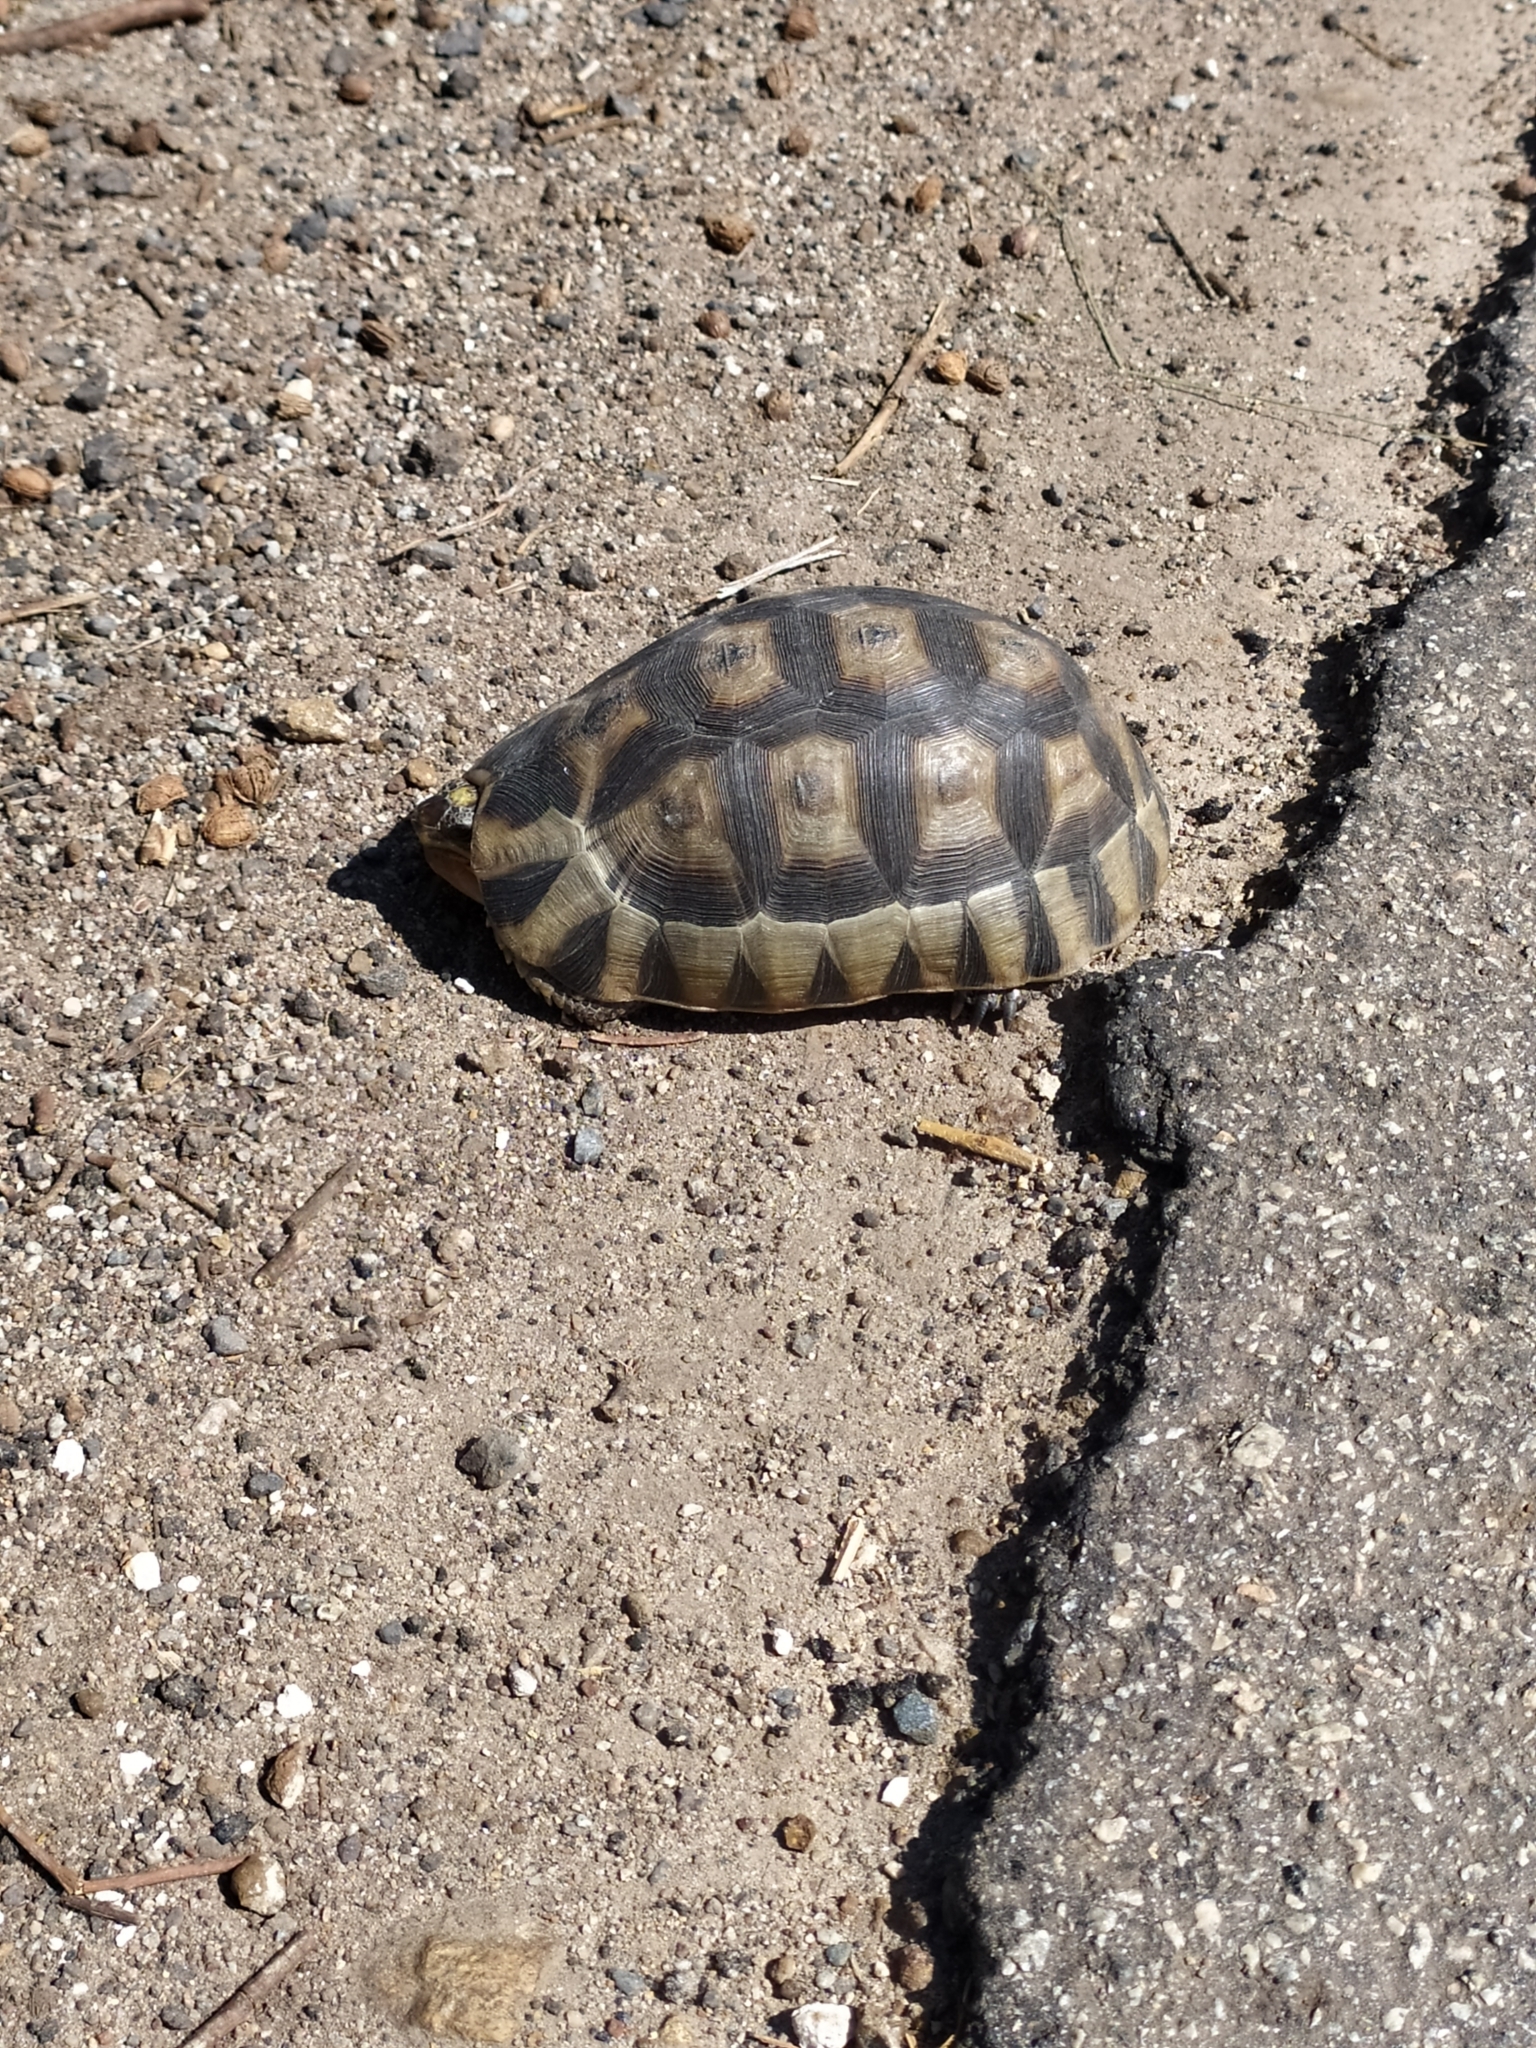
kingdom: Animalia
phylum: Chordata
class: Testudines
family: Testudinidae
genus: Chersina
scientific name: Chersina angulata
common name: South african bowsprit tortoise
